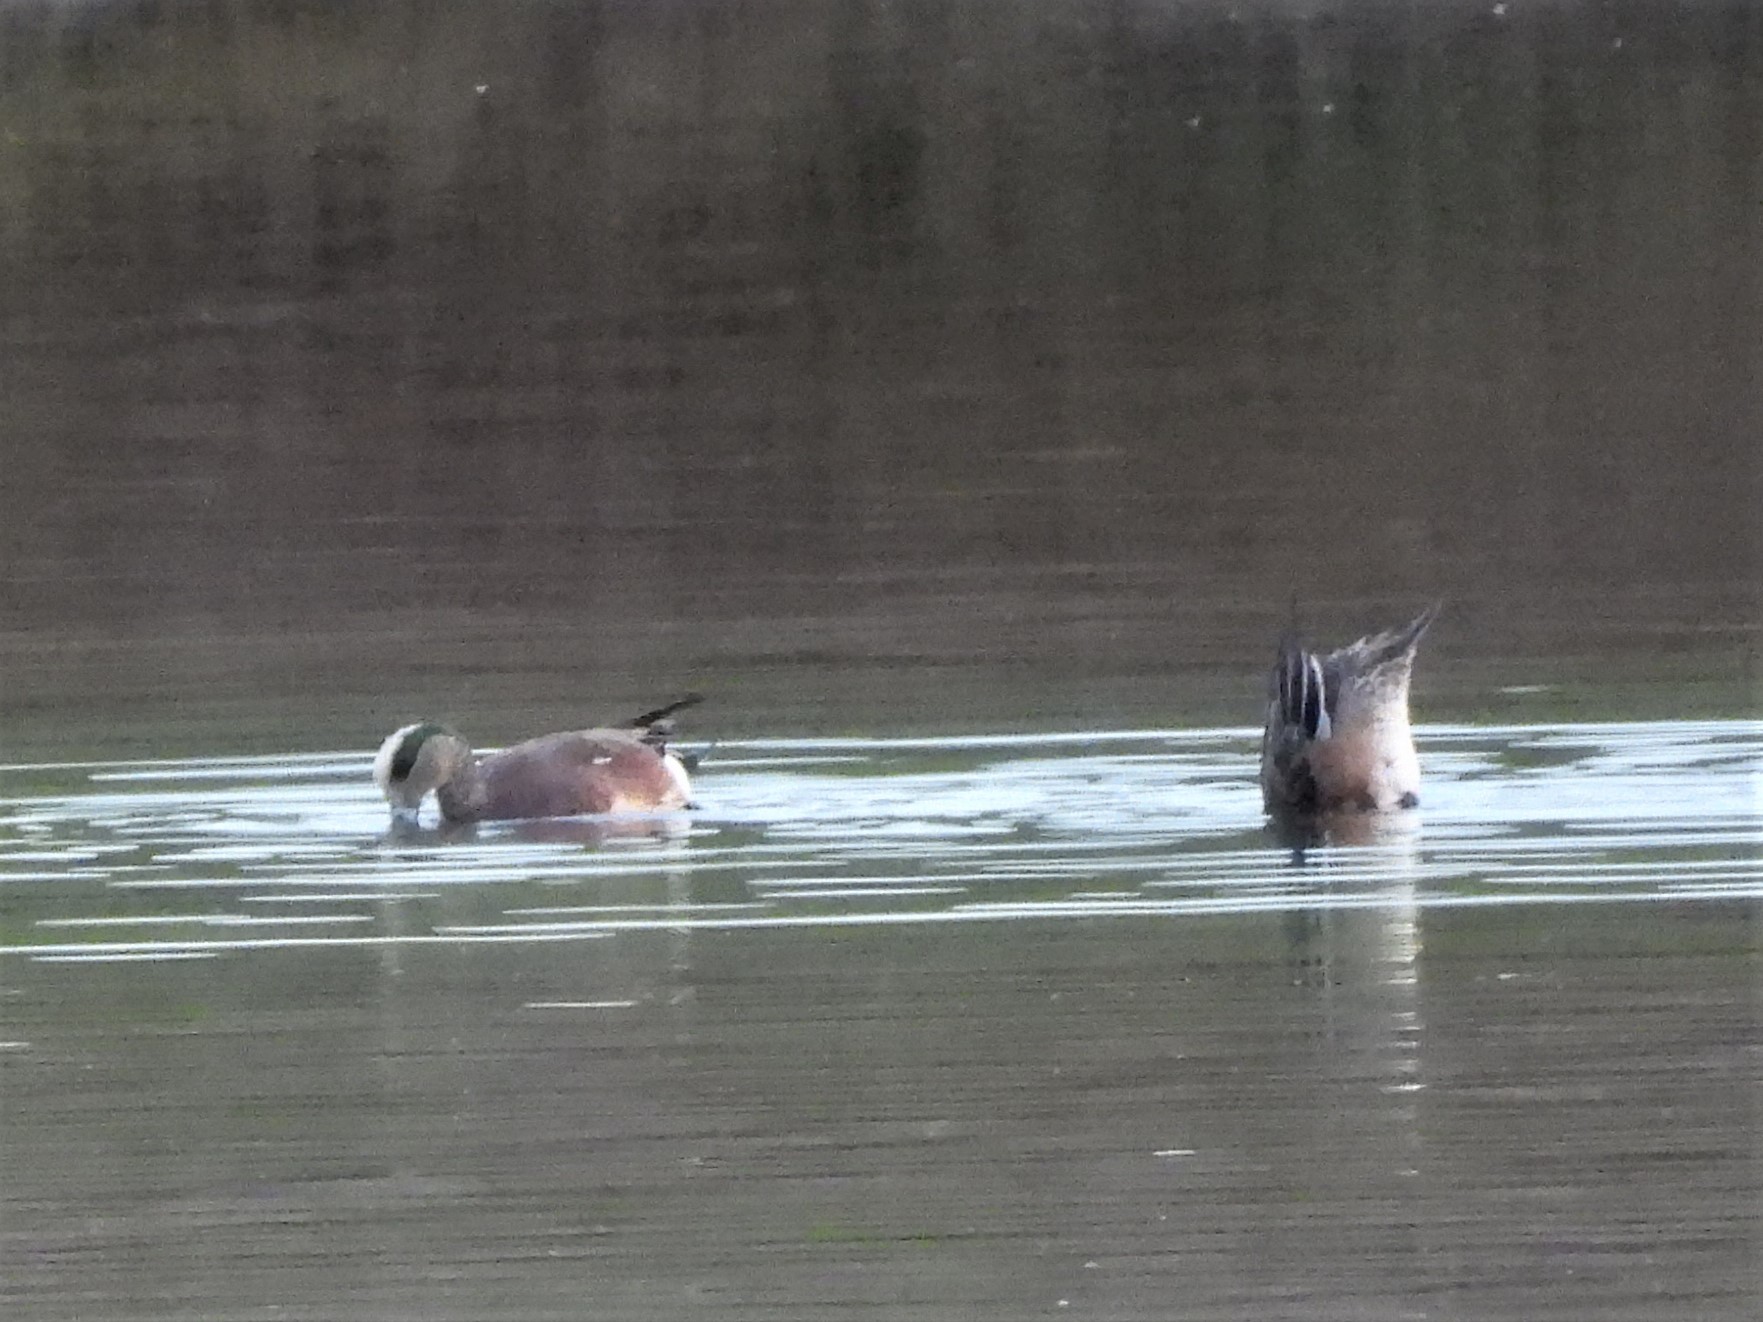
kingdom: Animalia
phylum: Chordata
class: Aves
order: Anseriformes
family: Anatidae
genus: Mareca
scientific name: Mareca americana
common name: American wigeon
